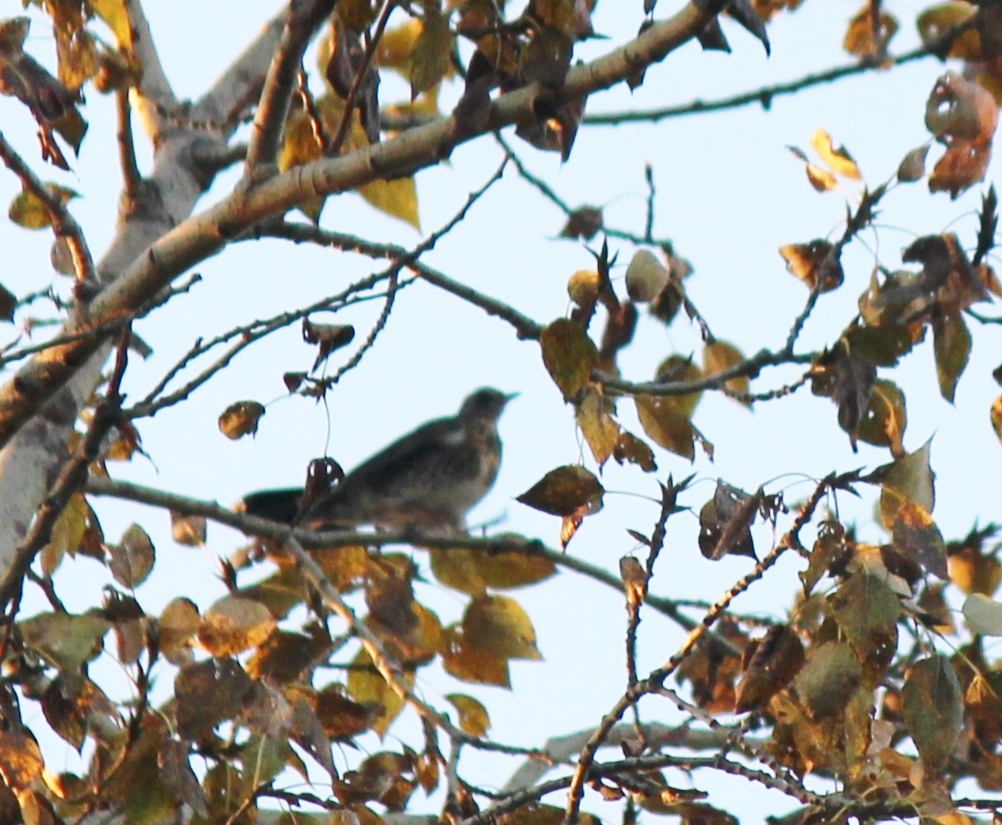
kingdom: Animalia
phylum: Chordata
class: Aves
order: Passeriformes
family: Turdidae
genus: Turdus
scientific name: Turdus pilaris
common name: Fieldfare
